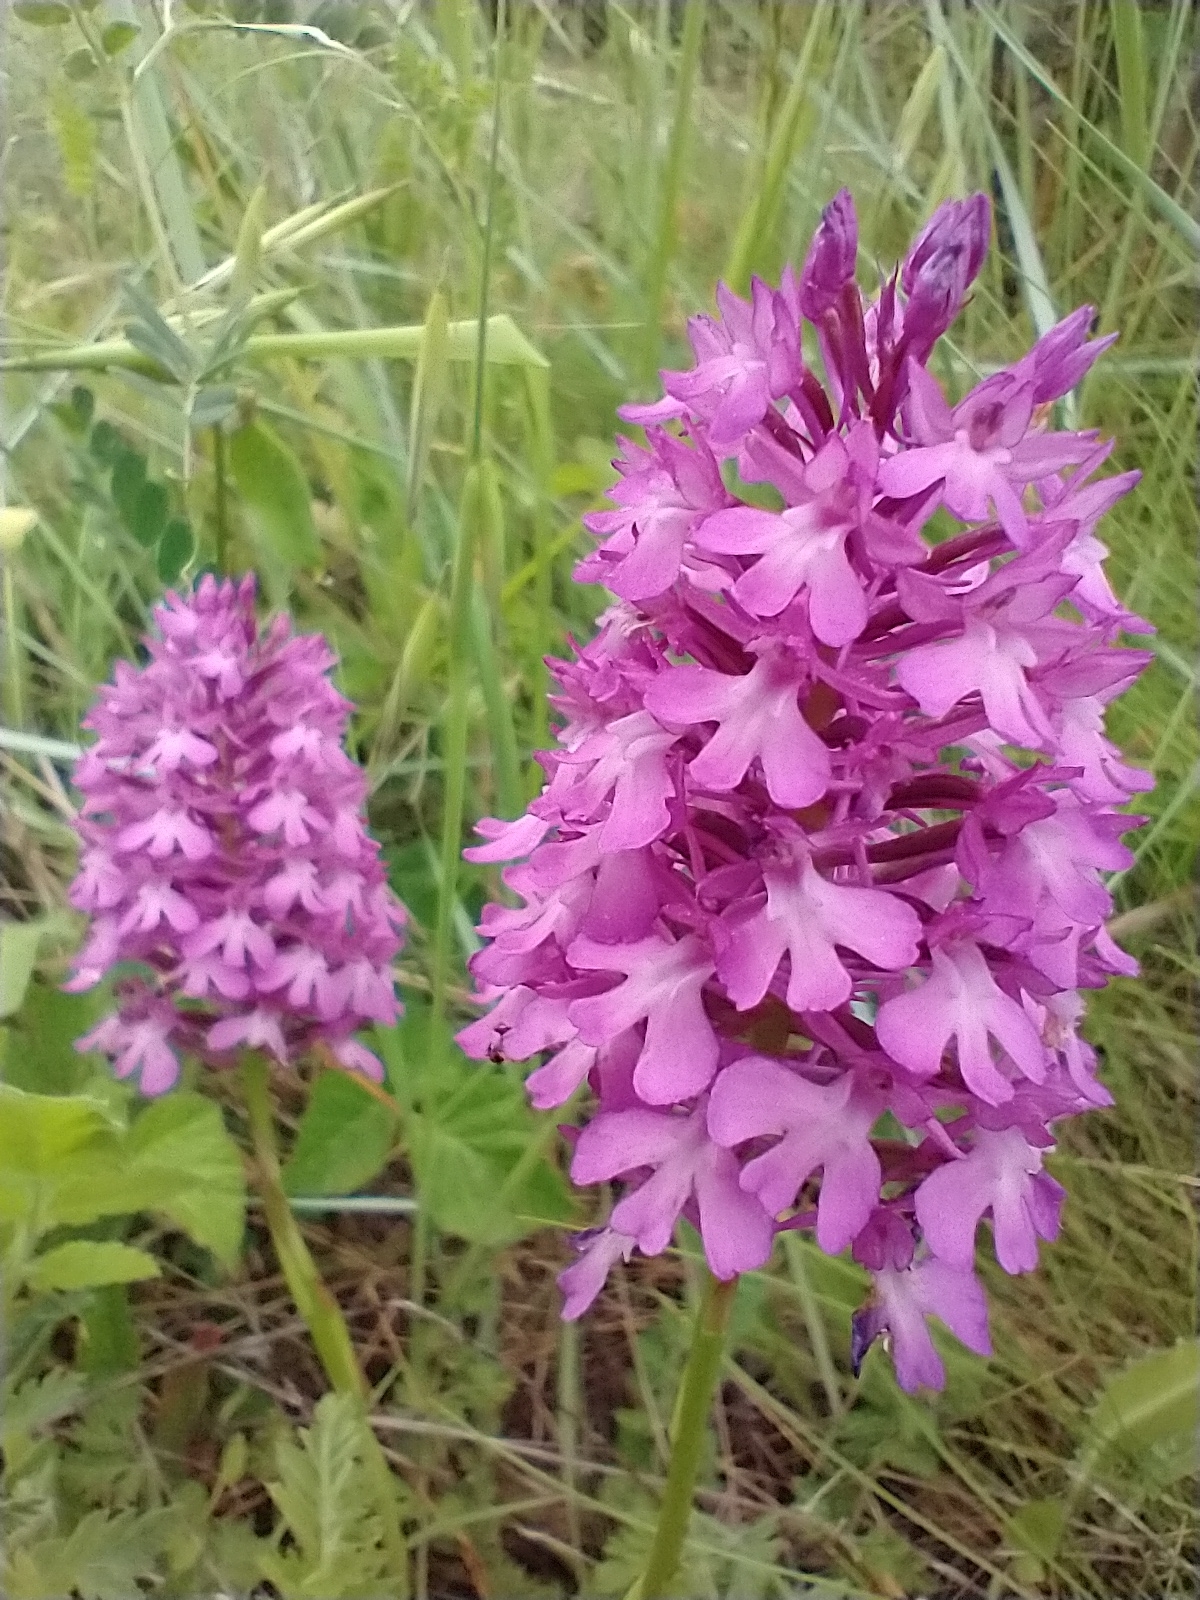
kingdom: Plantae
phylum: Tracheophyta
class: Liliopsida
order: Asparagales
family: Orchidaceae
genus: Anacamptis
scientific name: Anacamptis pyramidalis
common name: Pyramidal orchid
